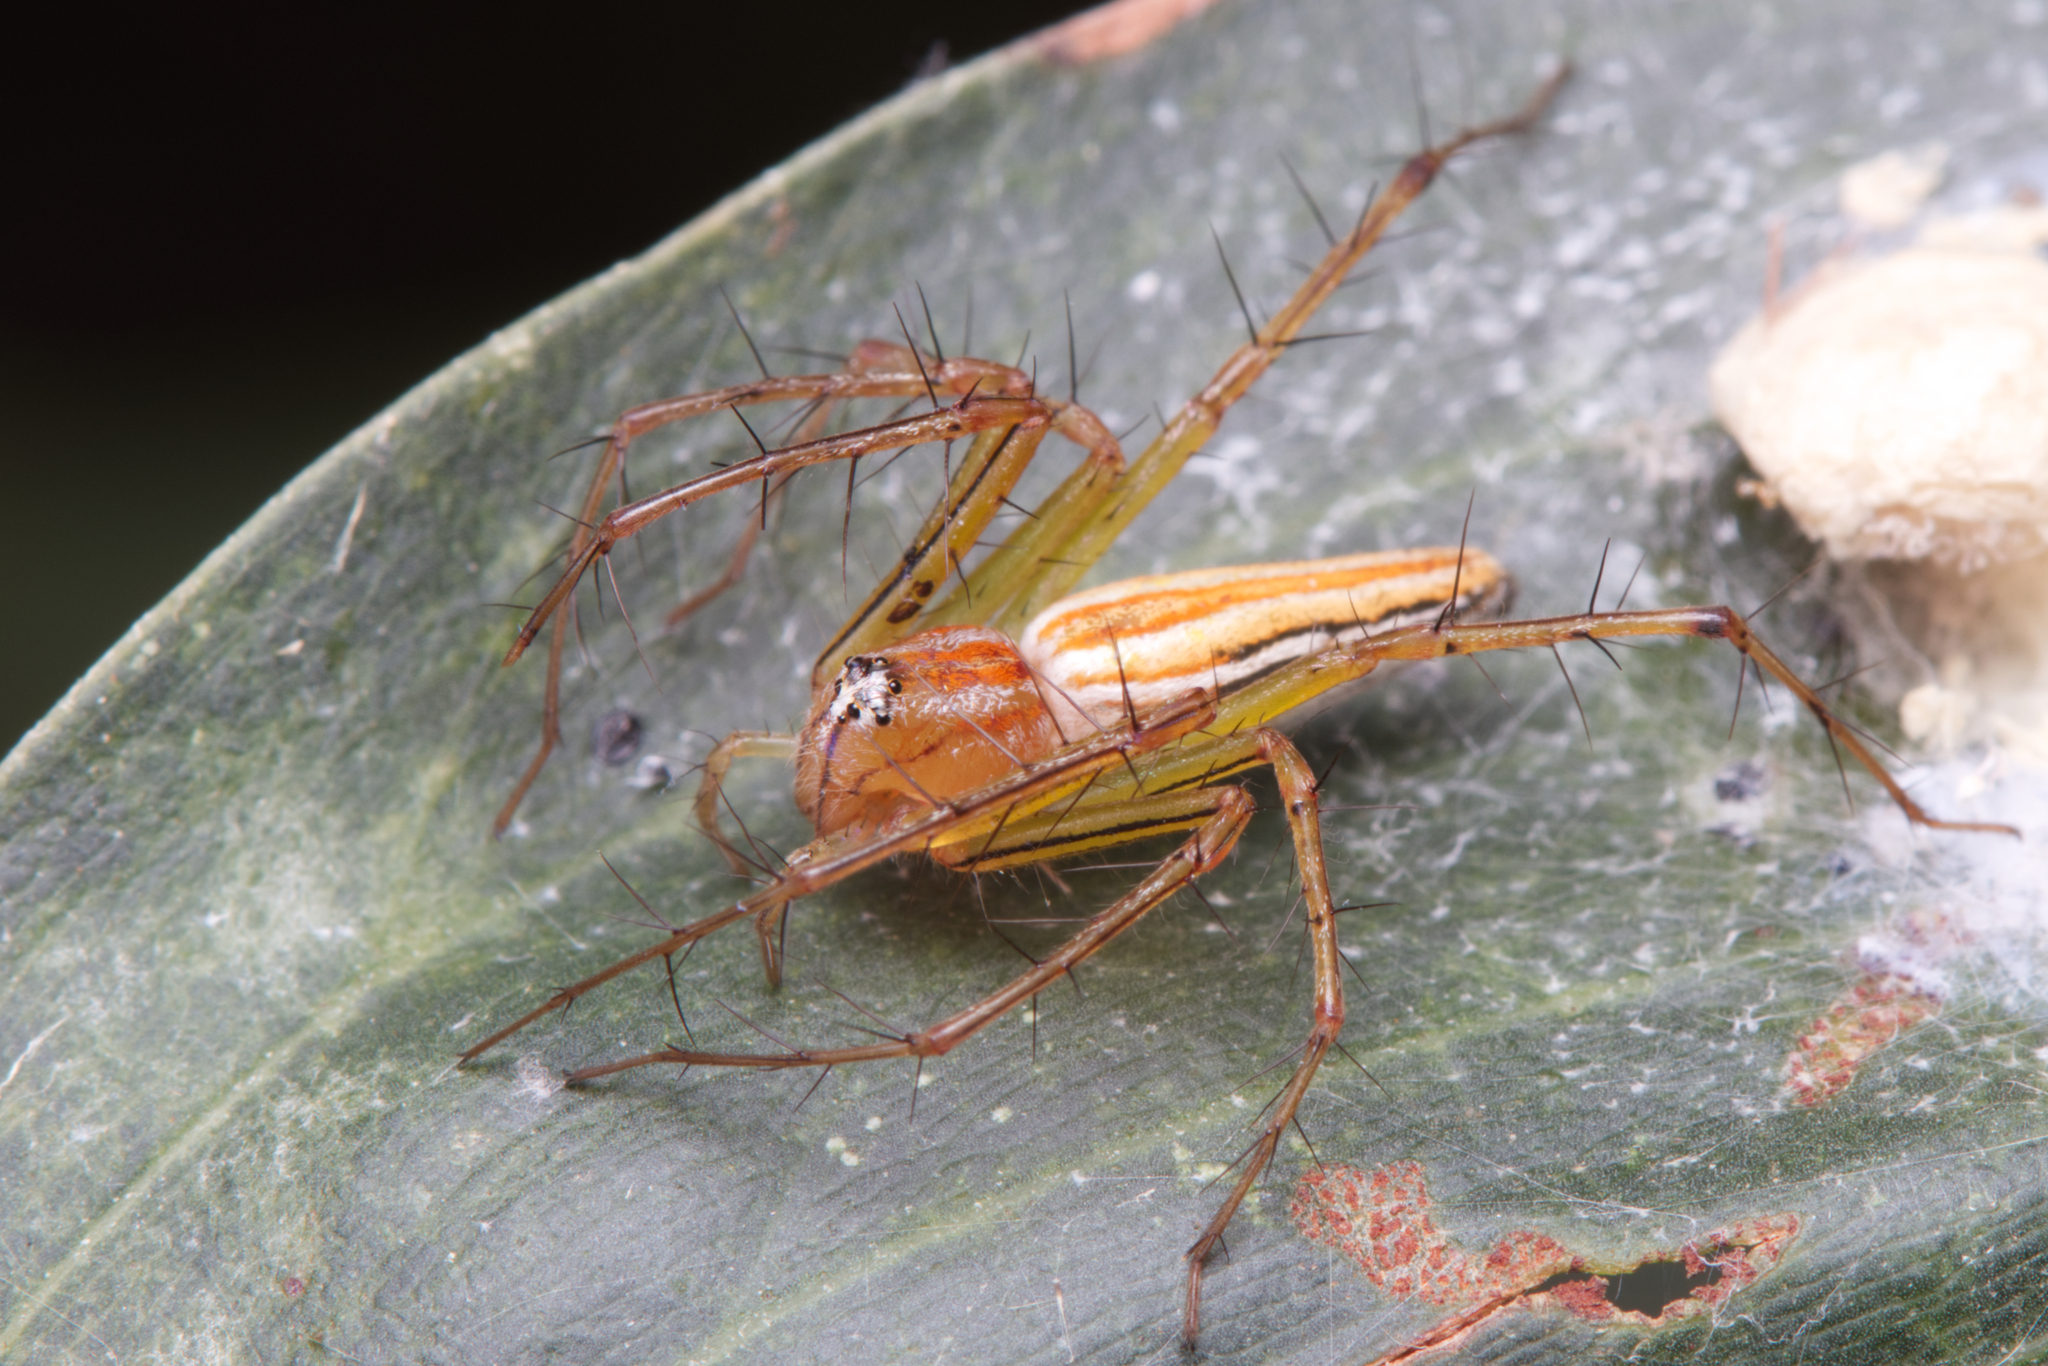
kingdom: Animalia
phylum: Arthropoda
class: Arachnida
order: Araneae
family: Oxyopidae
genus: Oxyopes
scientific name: Oxyopes macilentus
